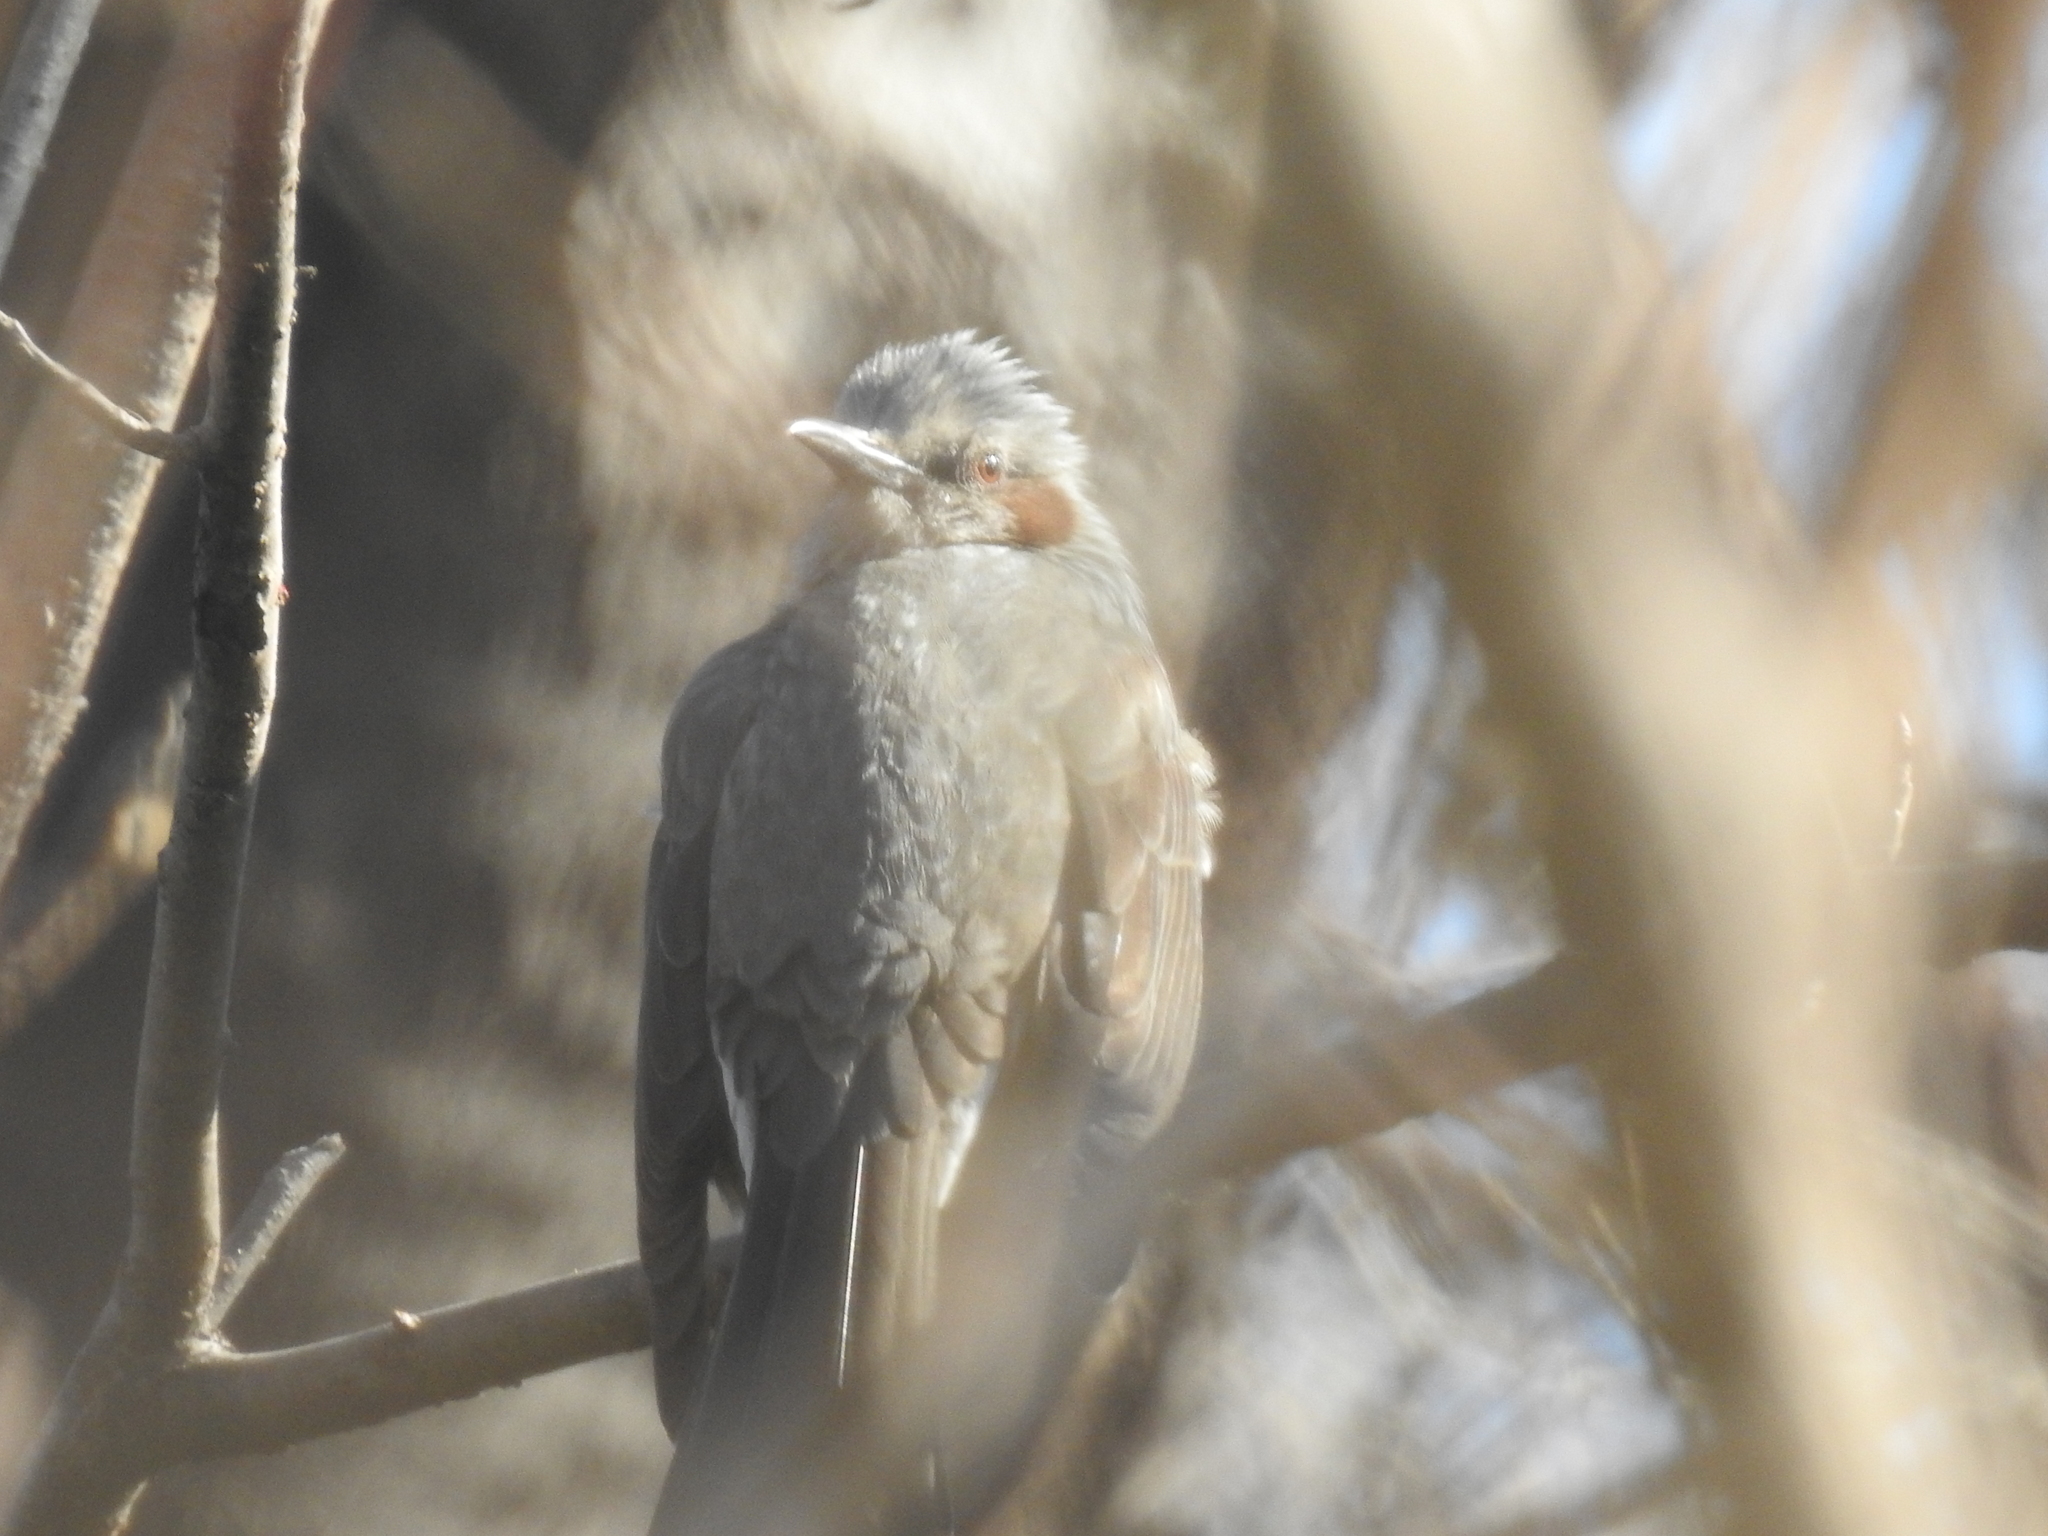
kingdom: Animalia
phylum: Chordata
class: Aves
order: Passeriformes
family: Pycnonotidae
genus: Hypsipetes
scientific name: Hypsipetes amaurotis
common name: Brown-eared bulbul
